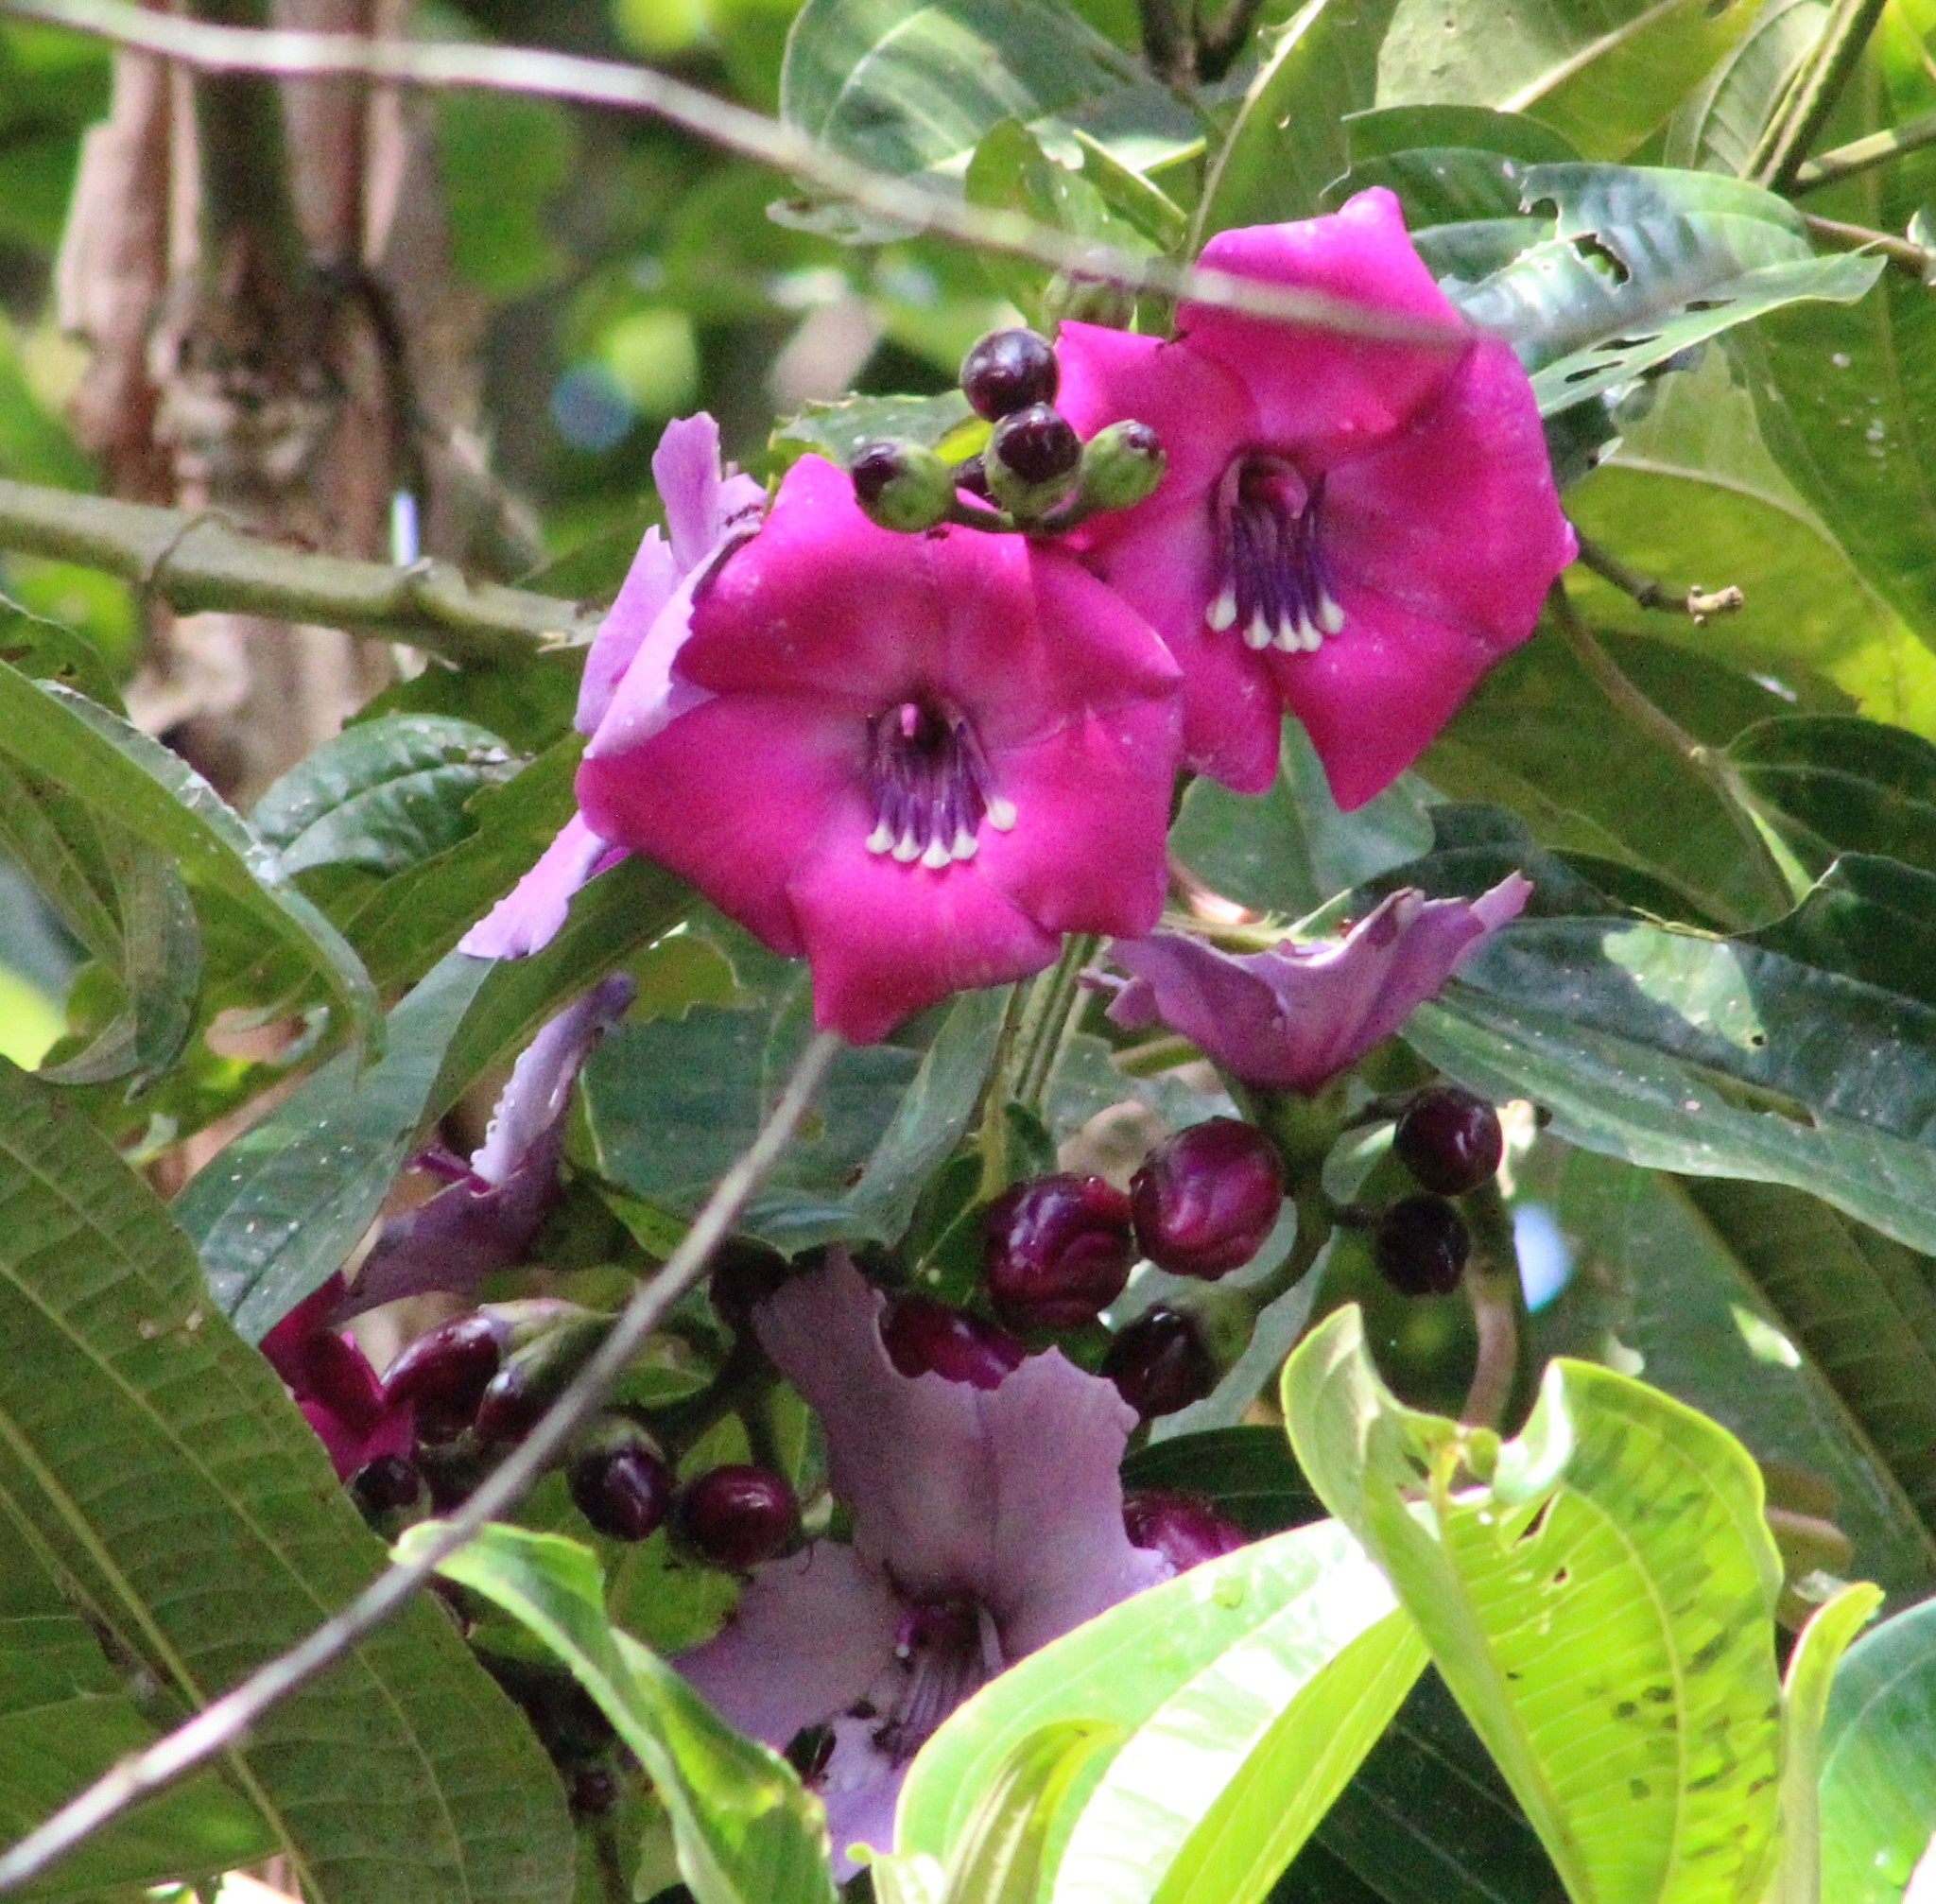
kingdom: Plantae
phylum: Tracheophyta
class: Magnoliopsida
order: Myrtales
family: Melastomataceae
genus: Meriania
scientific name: Meriania maxima
